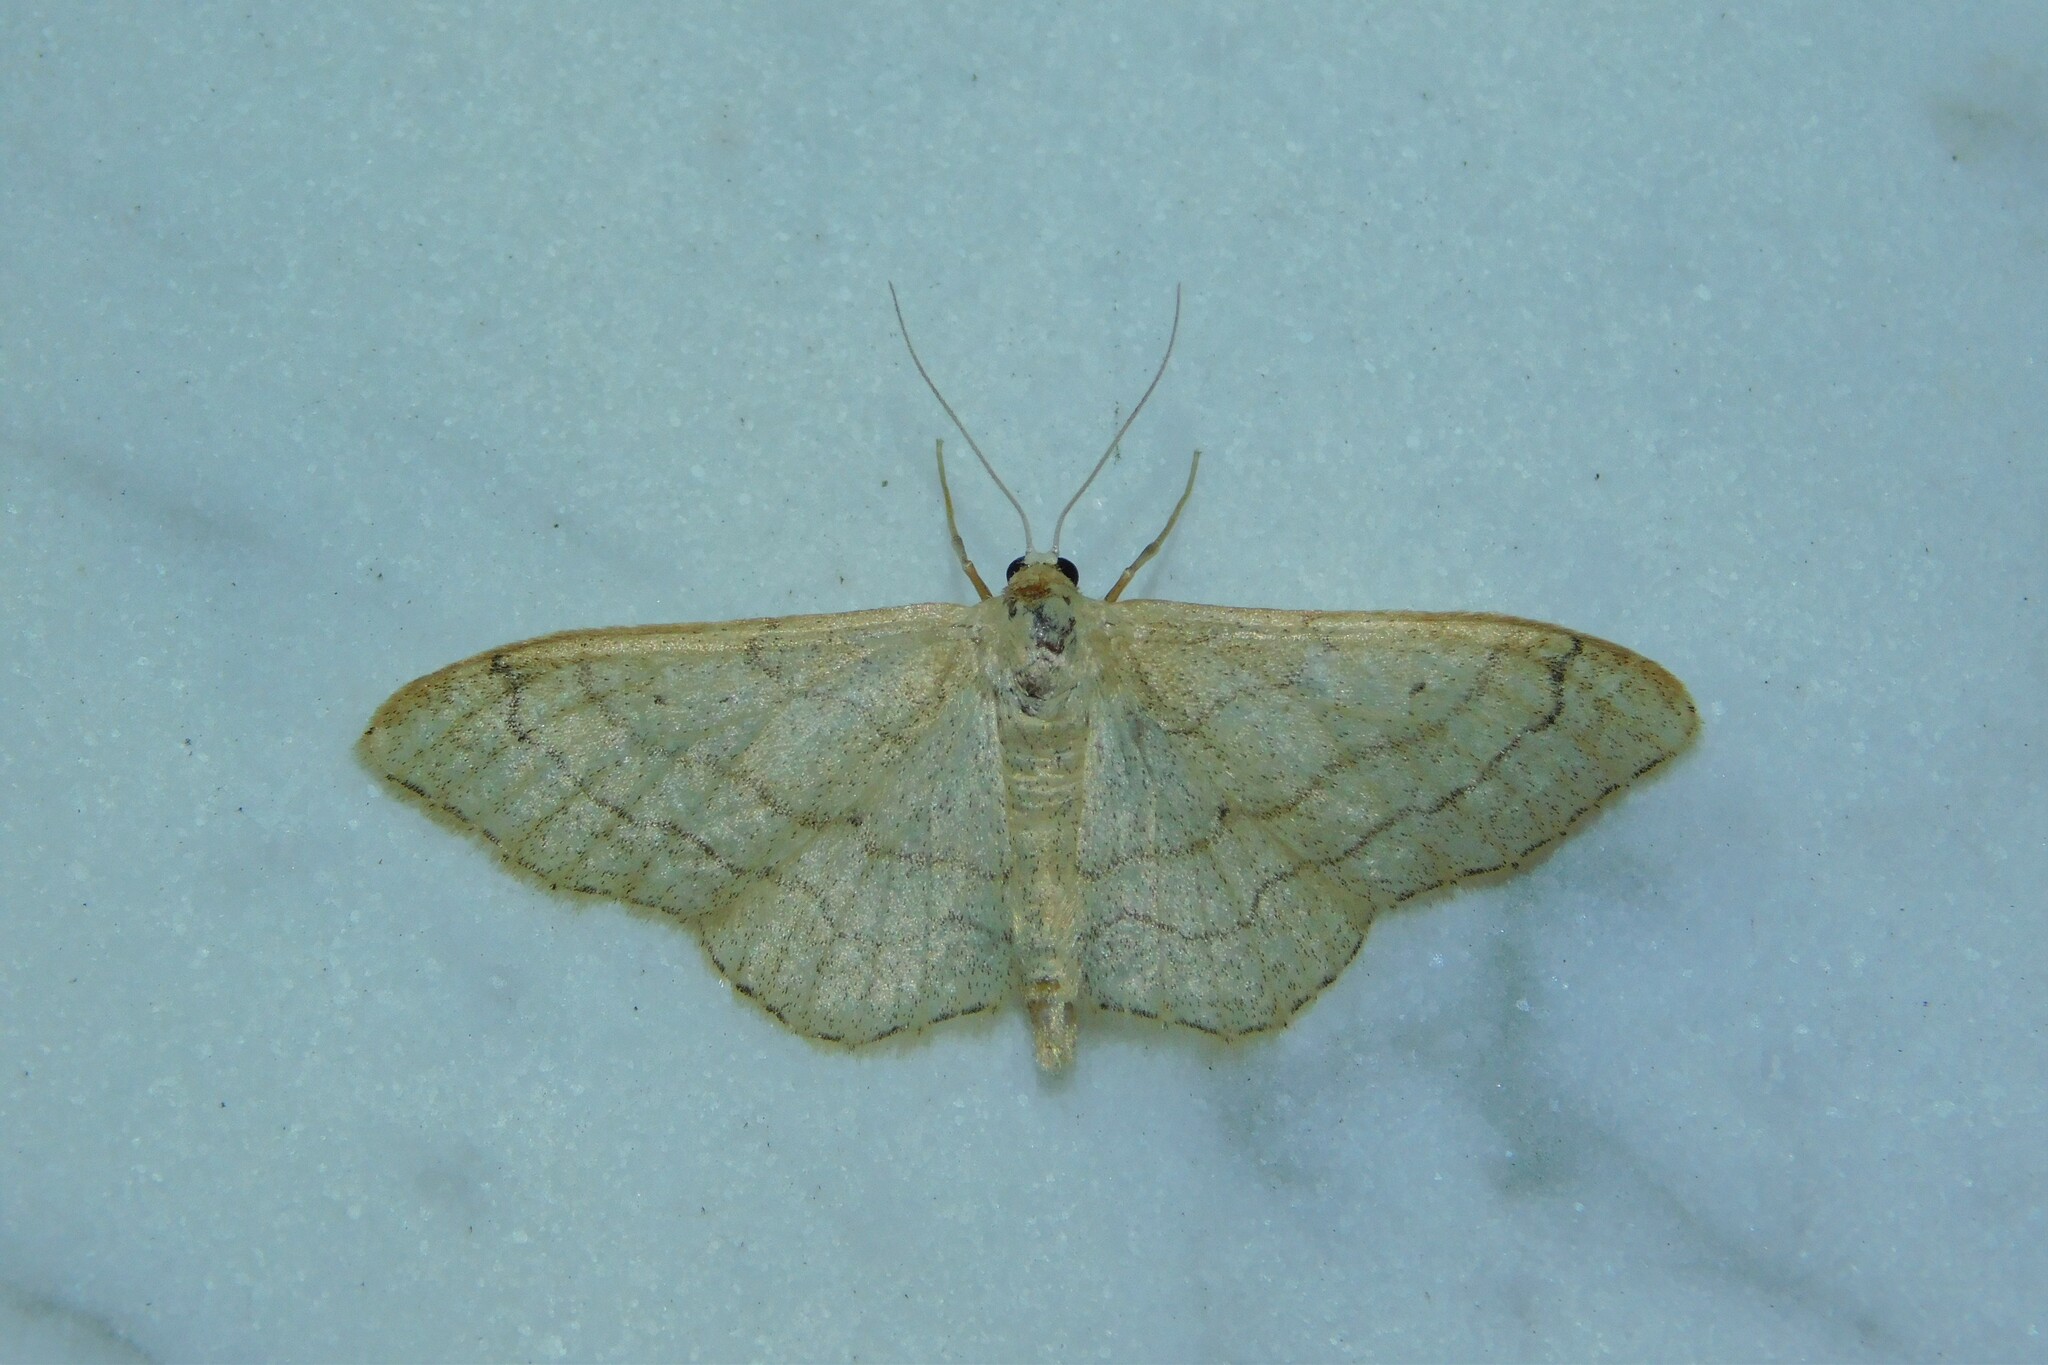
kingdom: Animalia
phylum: Arthropoda
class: Insecta
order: Lepidoptera
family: Geometridae
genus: Idaea
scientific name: Idaea aversata
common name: Riband wave
